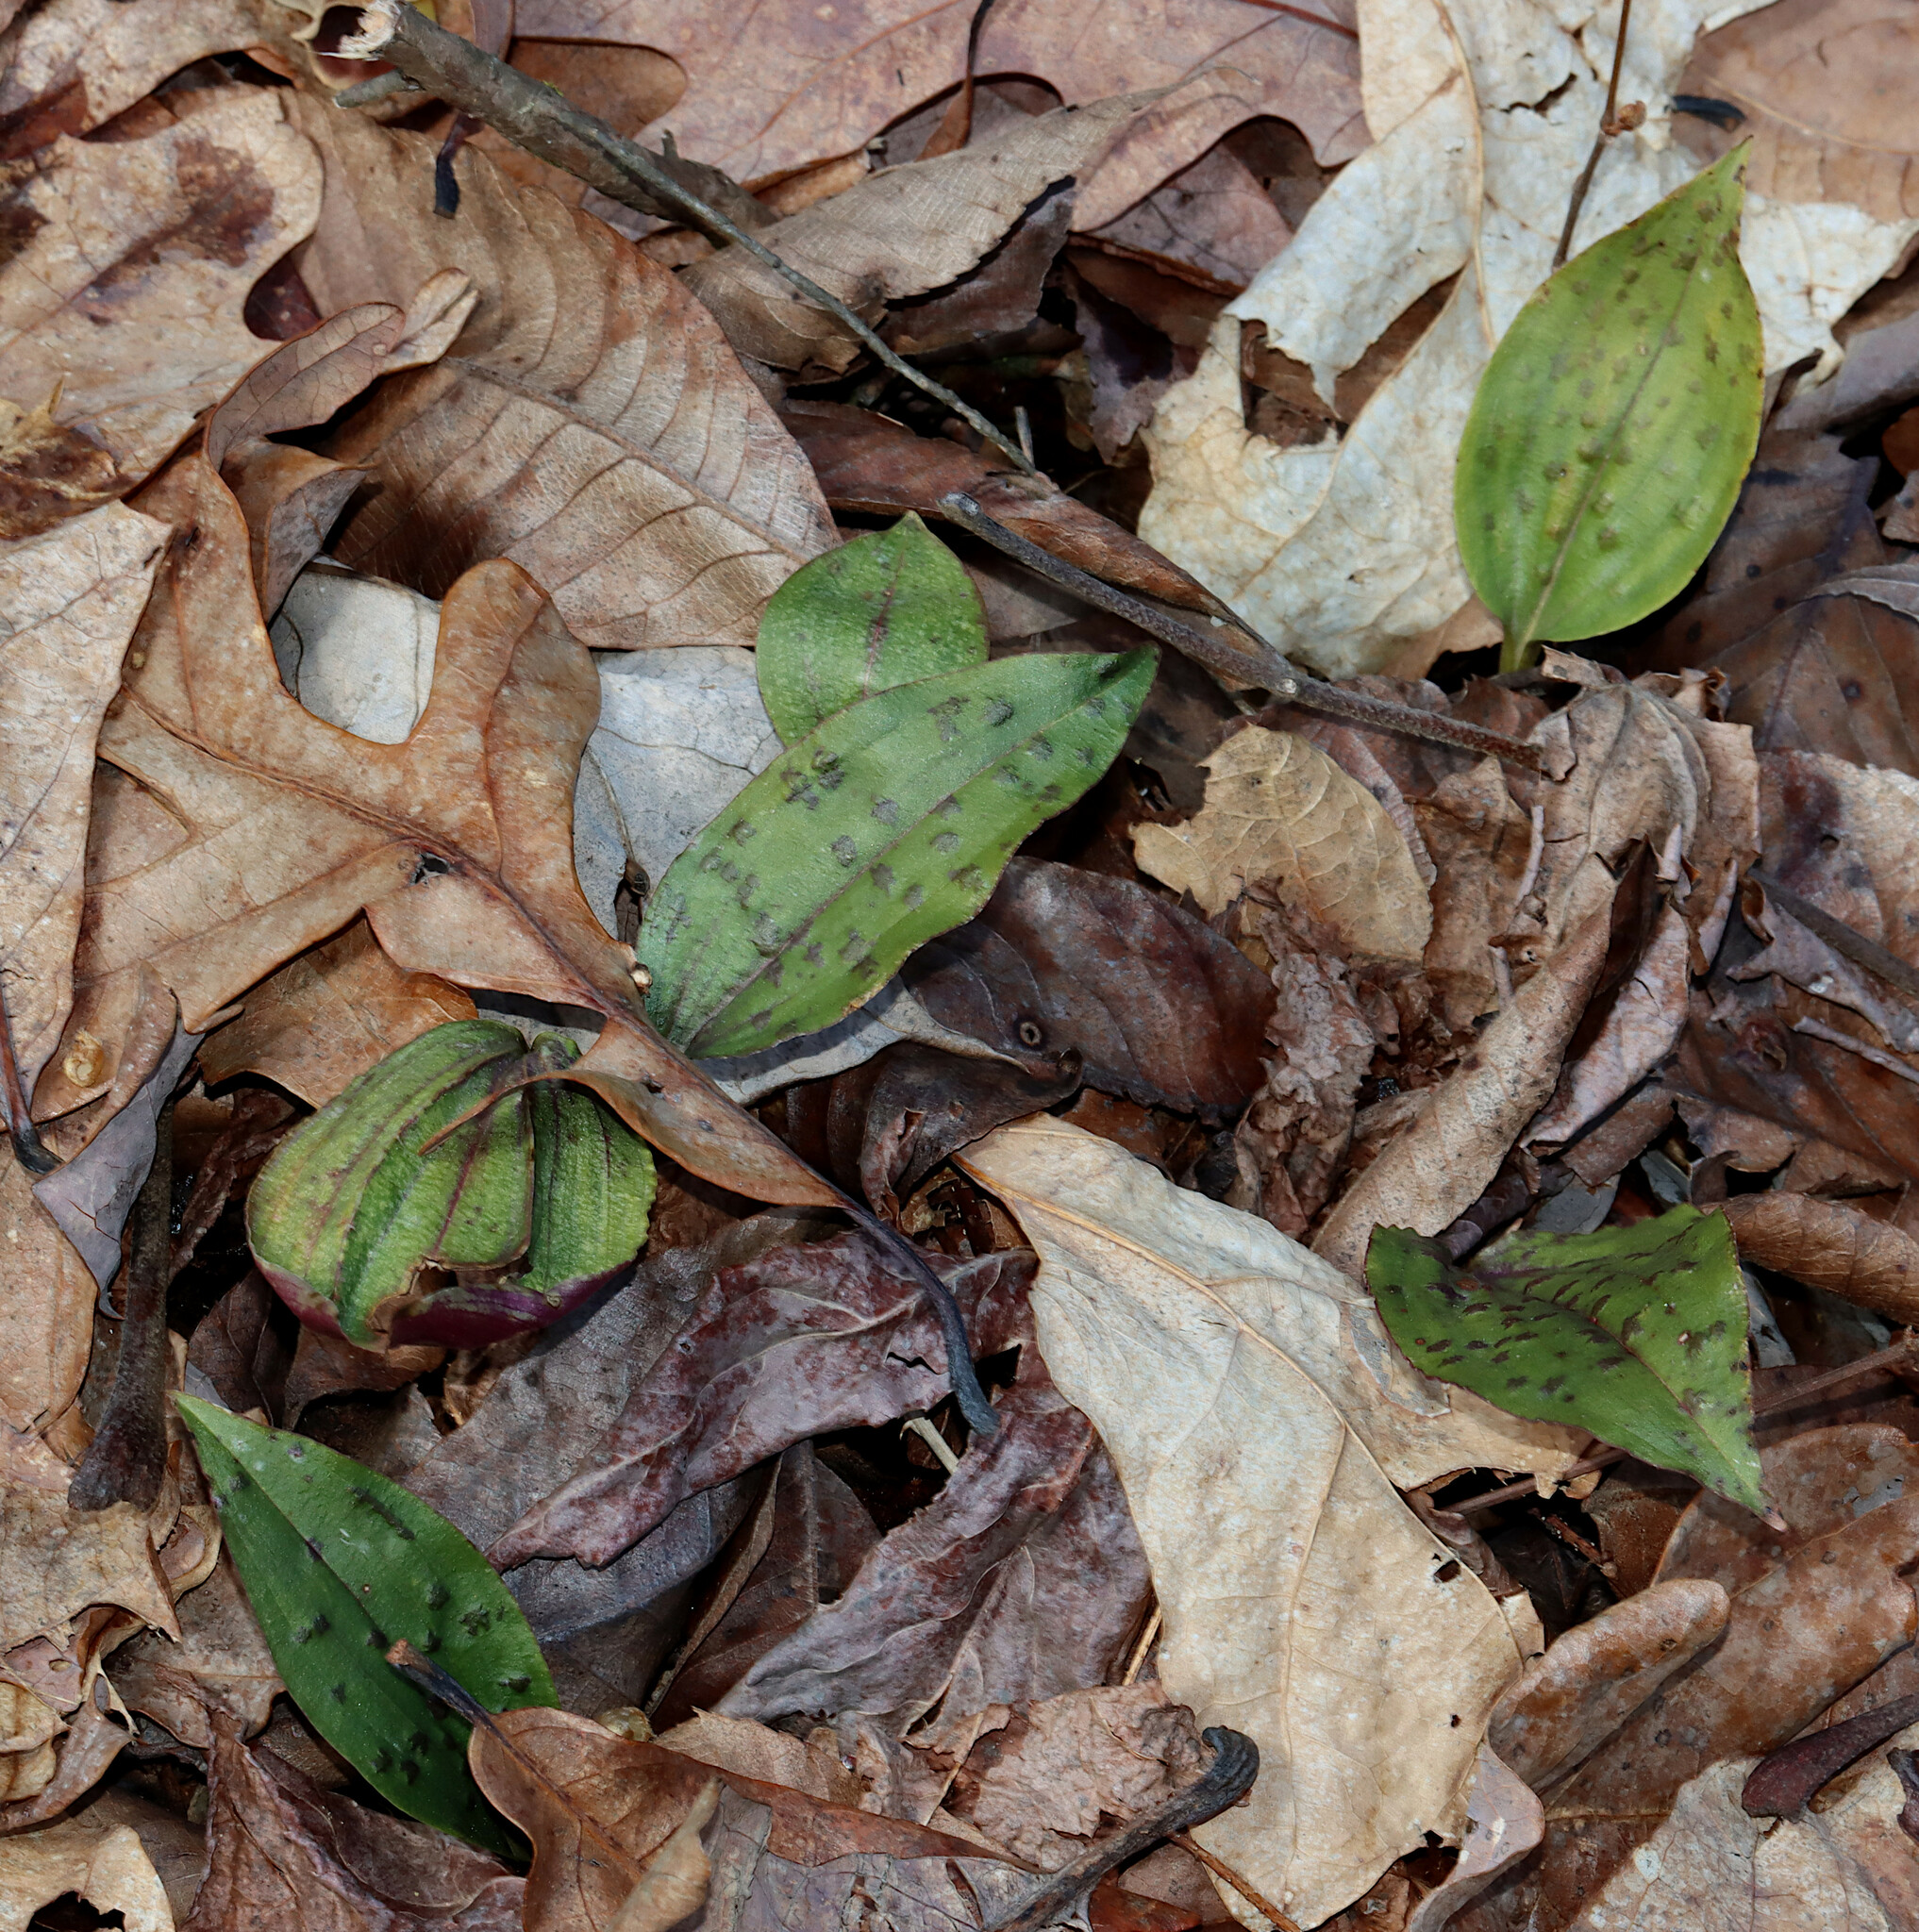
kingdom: Plantae
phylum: Tracheophyta
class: Liliopsida
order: Asparagales
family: Orchidaceae
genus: Tipularia
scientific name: Tipularia discolor
